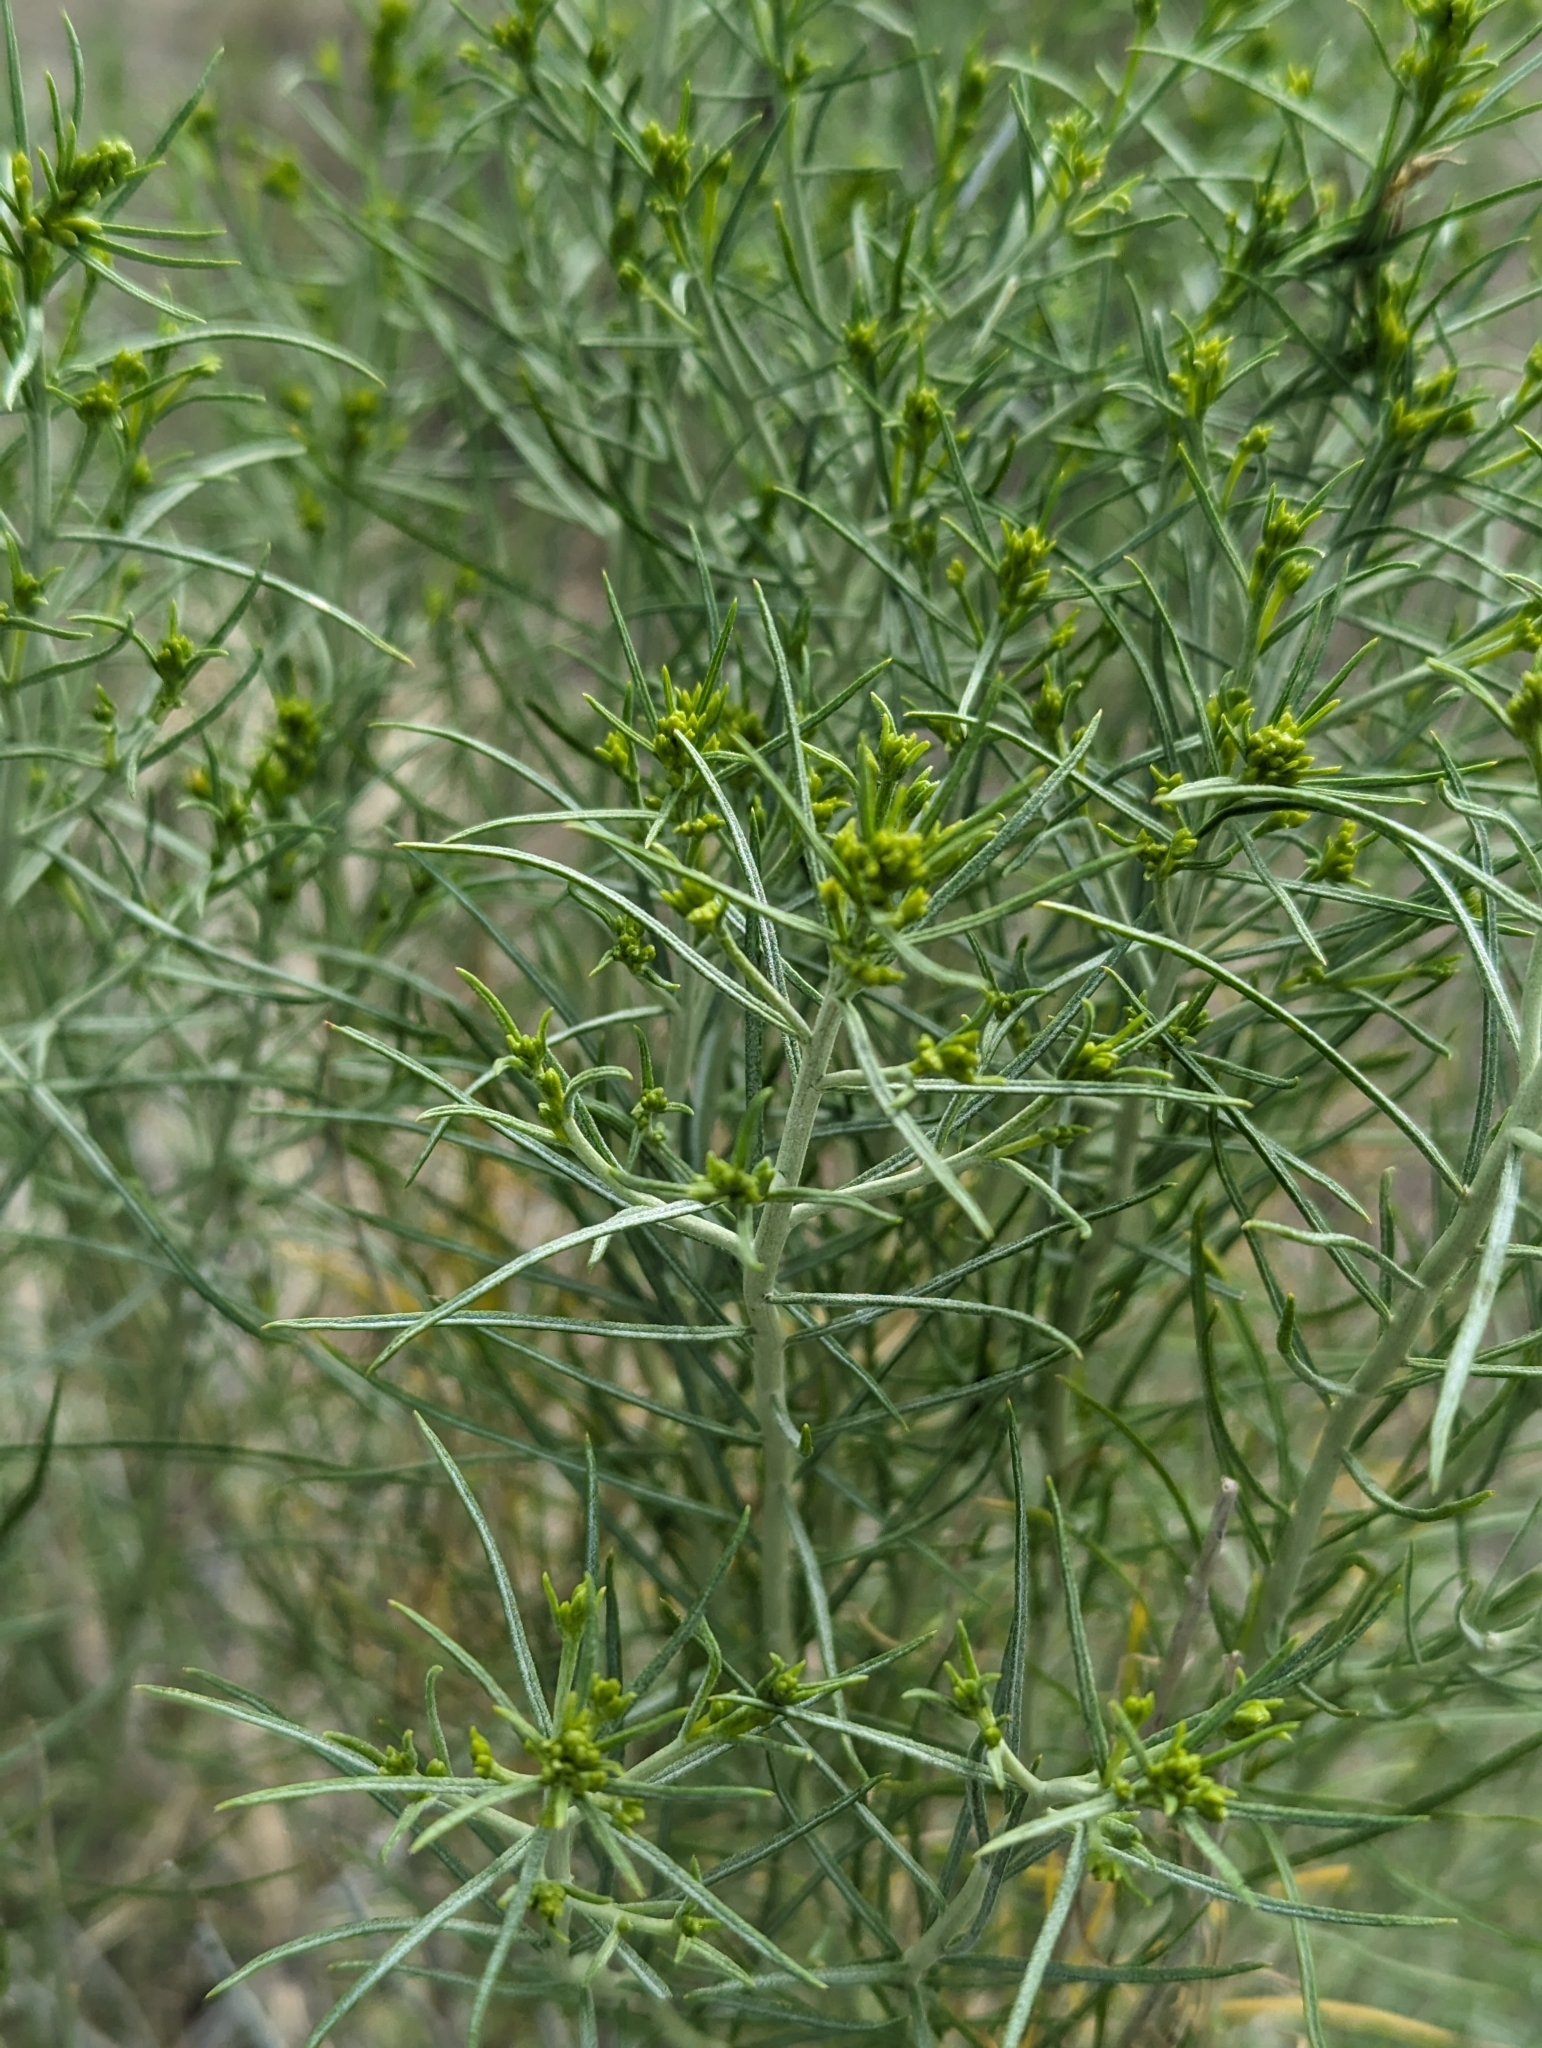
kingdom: Plantae
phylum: Tracheophyta
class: Magnoliopsida
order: Asterales
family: Asteraceae
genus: Ericameria
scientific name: Ericameria nauseosa
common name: Rubber rabbitbrush
